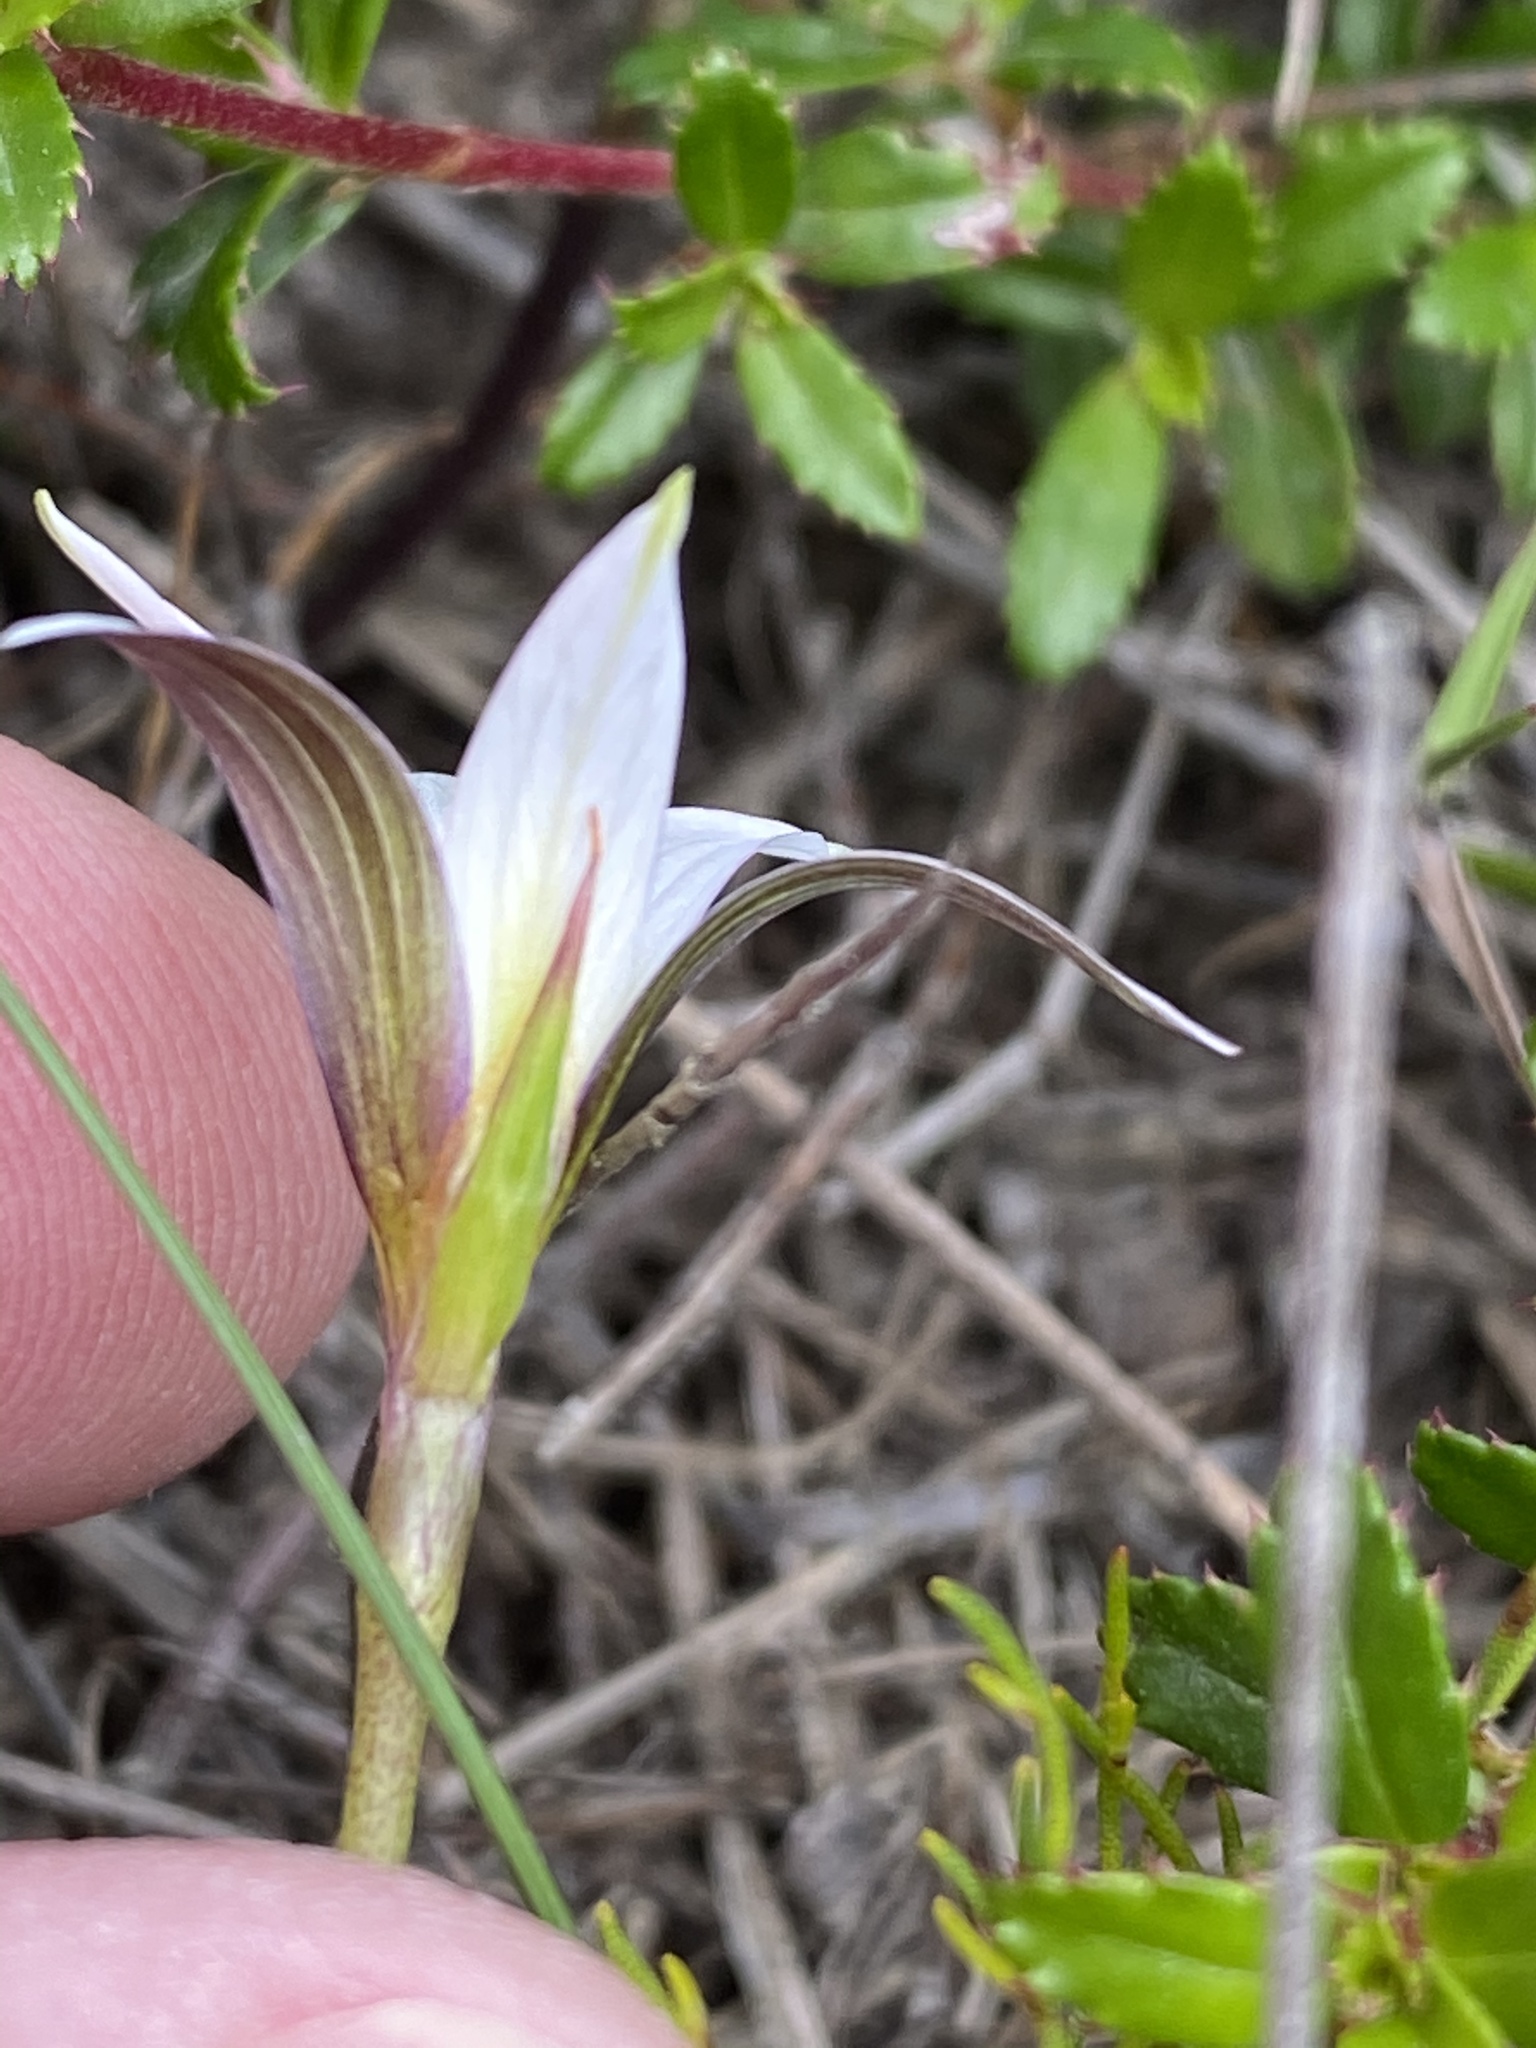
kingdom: Plantae
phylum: Tracheophyta
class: Liliopsida
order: Asparagales
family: Iridaceae
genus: Romulea
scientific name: Romulea longipes
